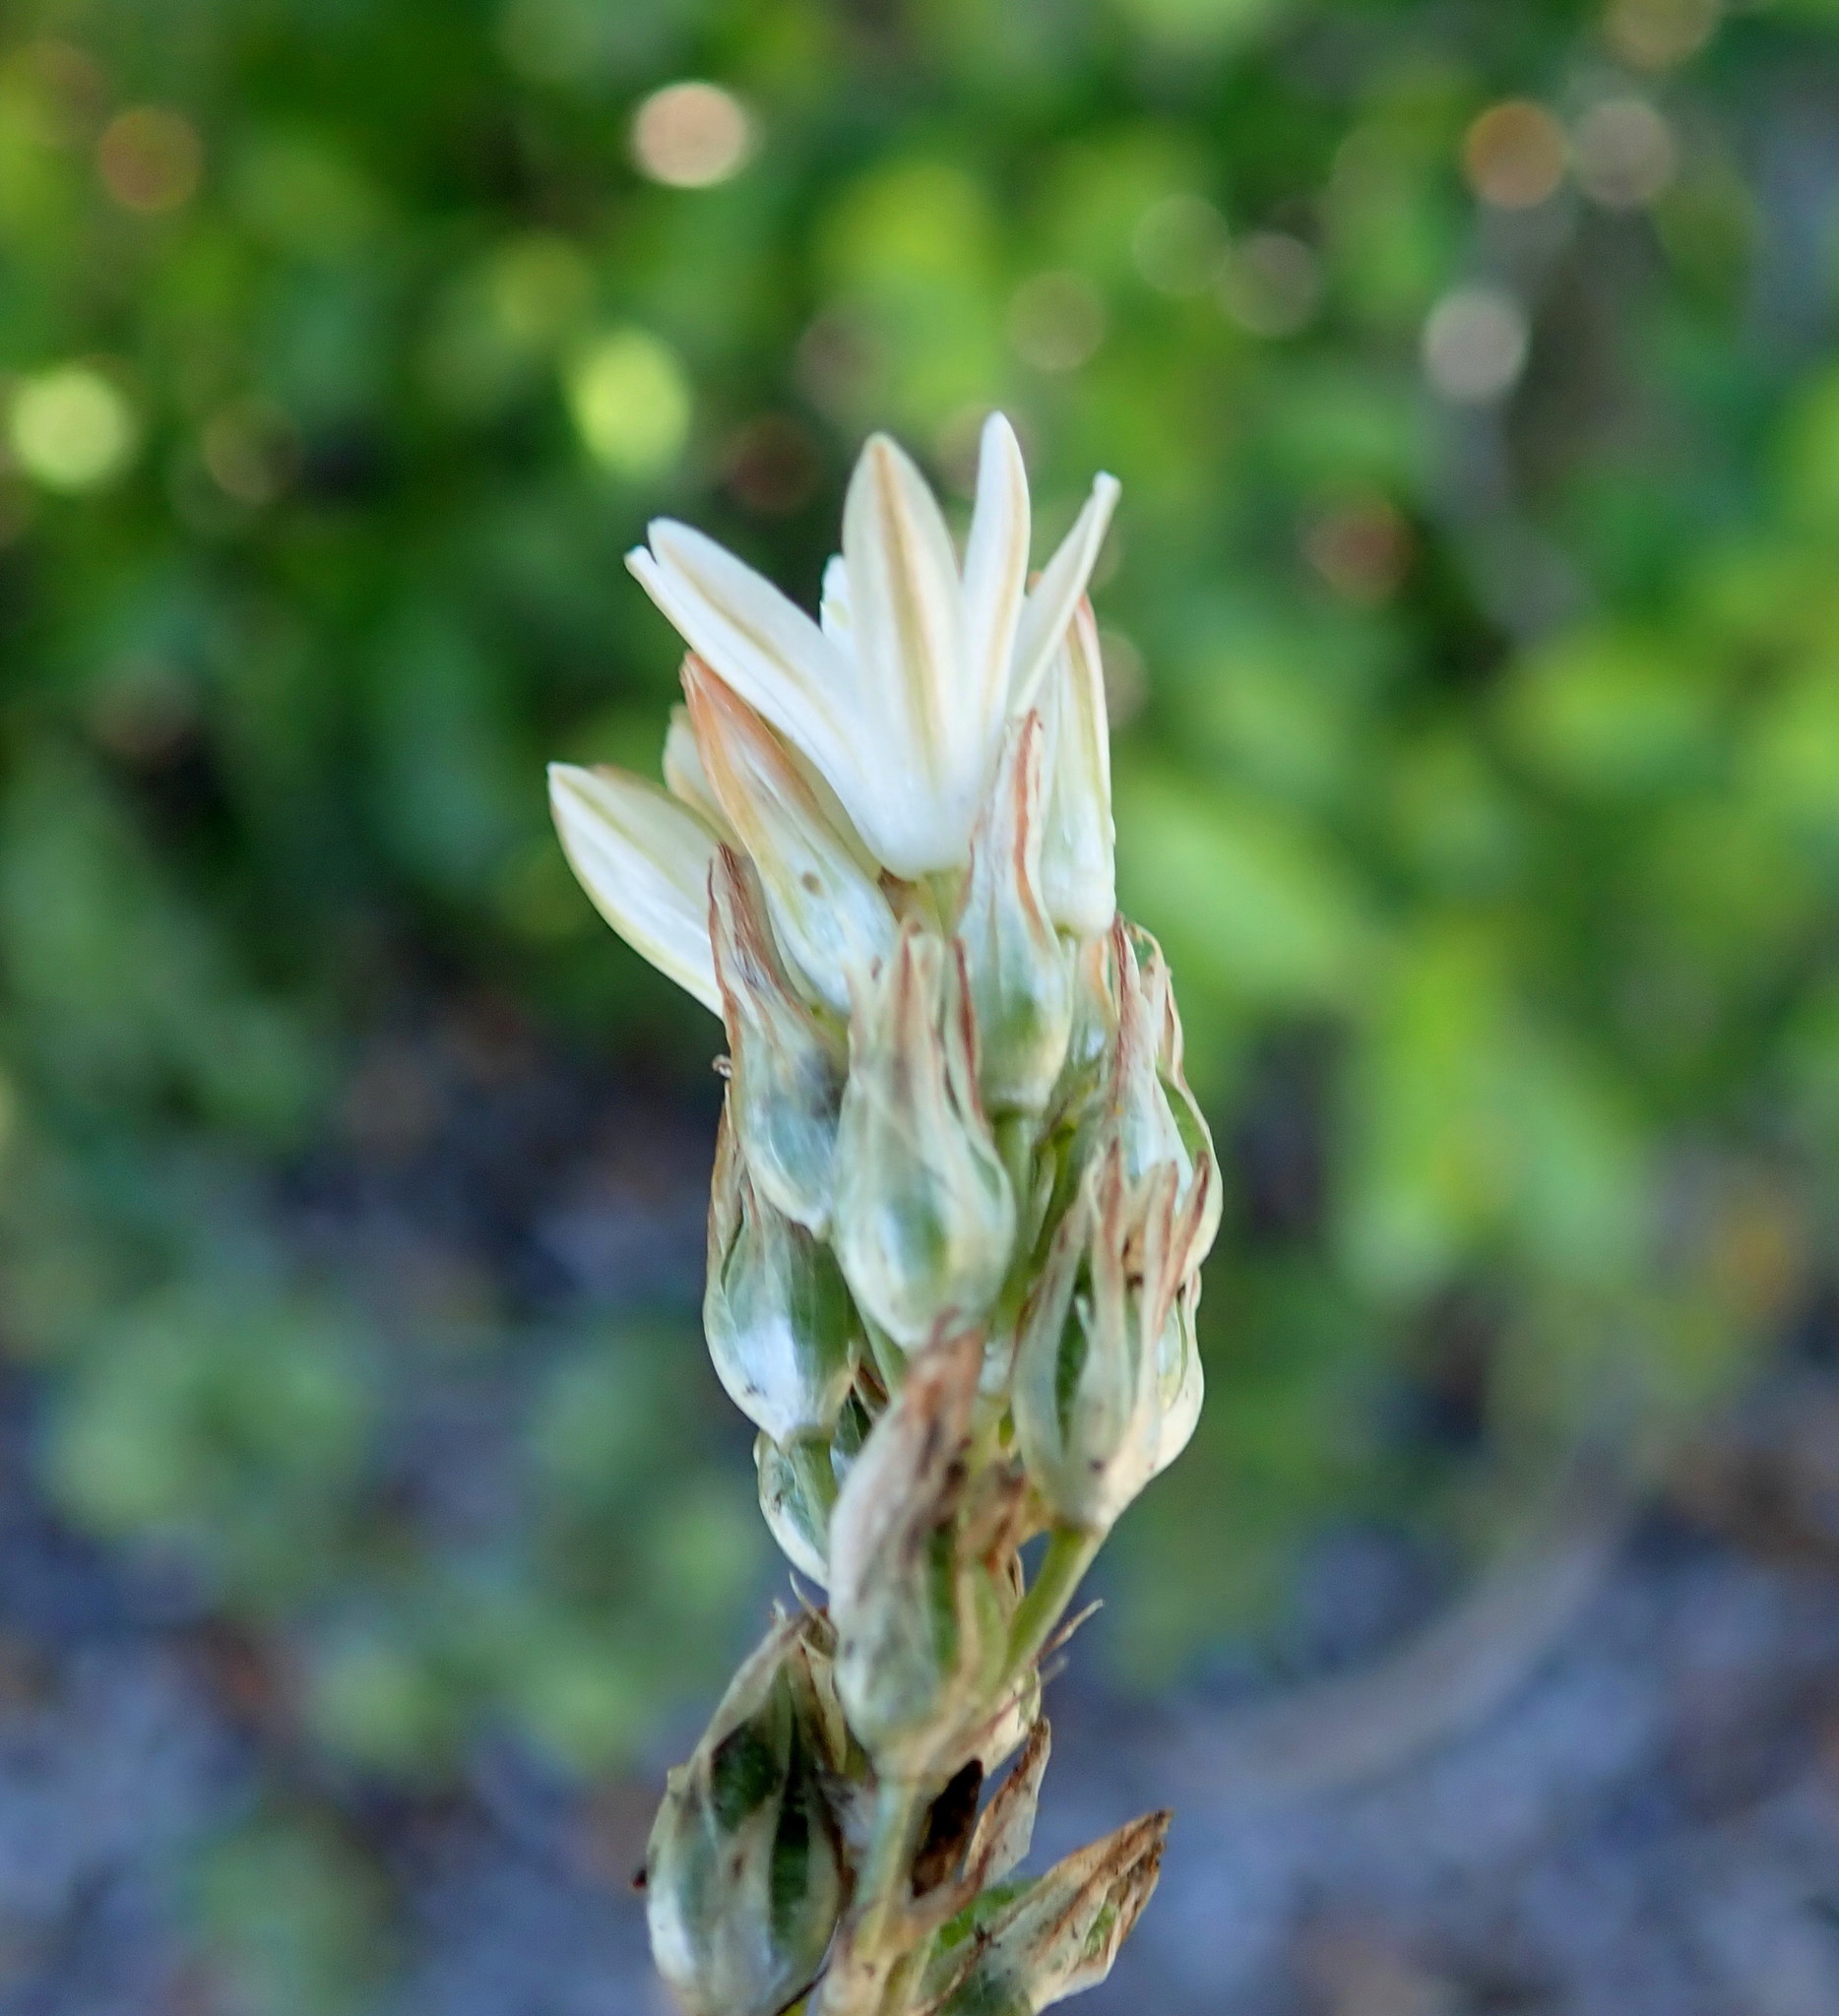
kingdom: Plantae
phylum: Tracheophyta
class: Liliopsida
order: Asparagales
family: Asparagaceae
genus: Ornithogalum
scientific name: Ornithogalum rogersii
